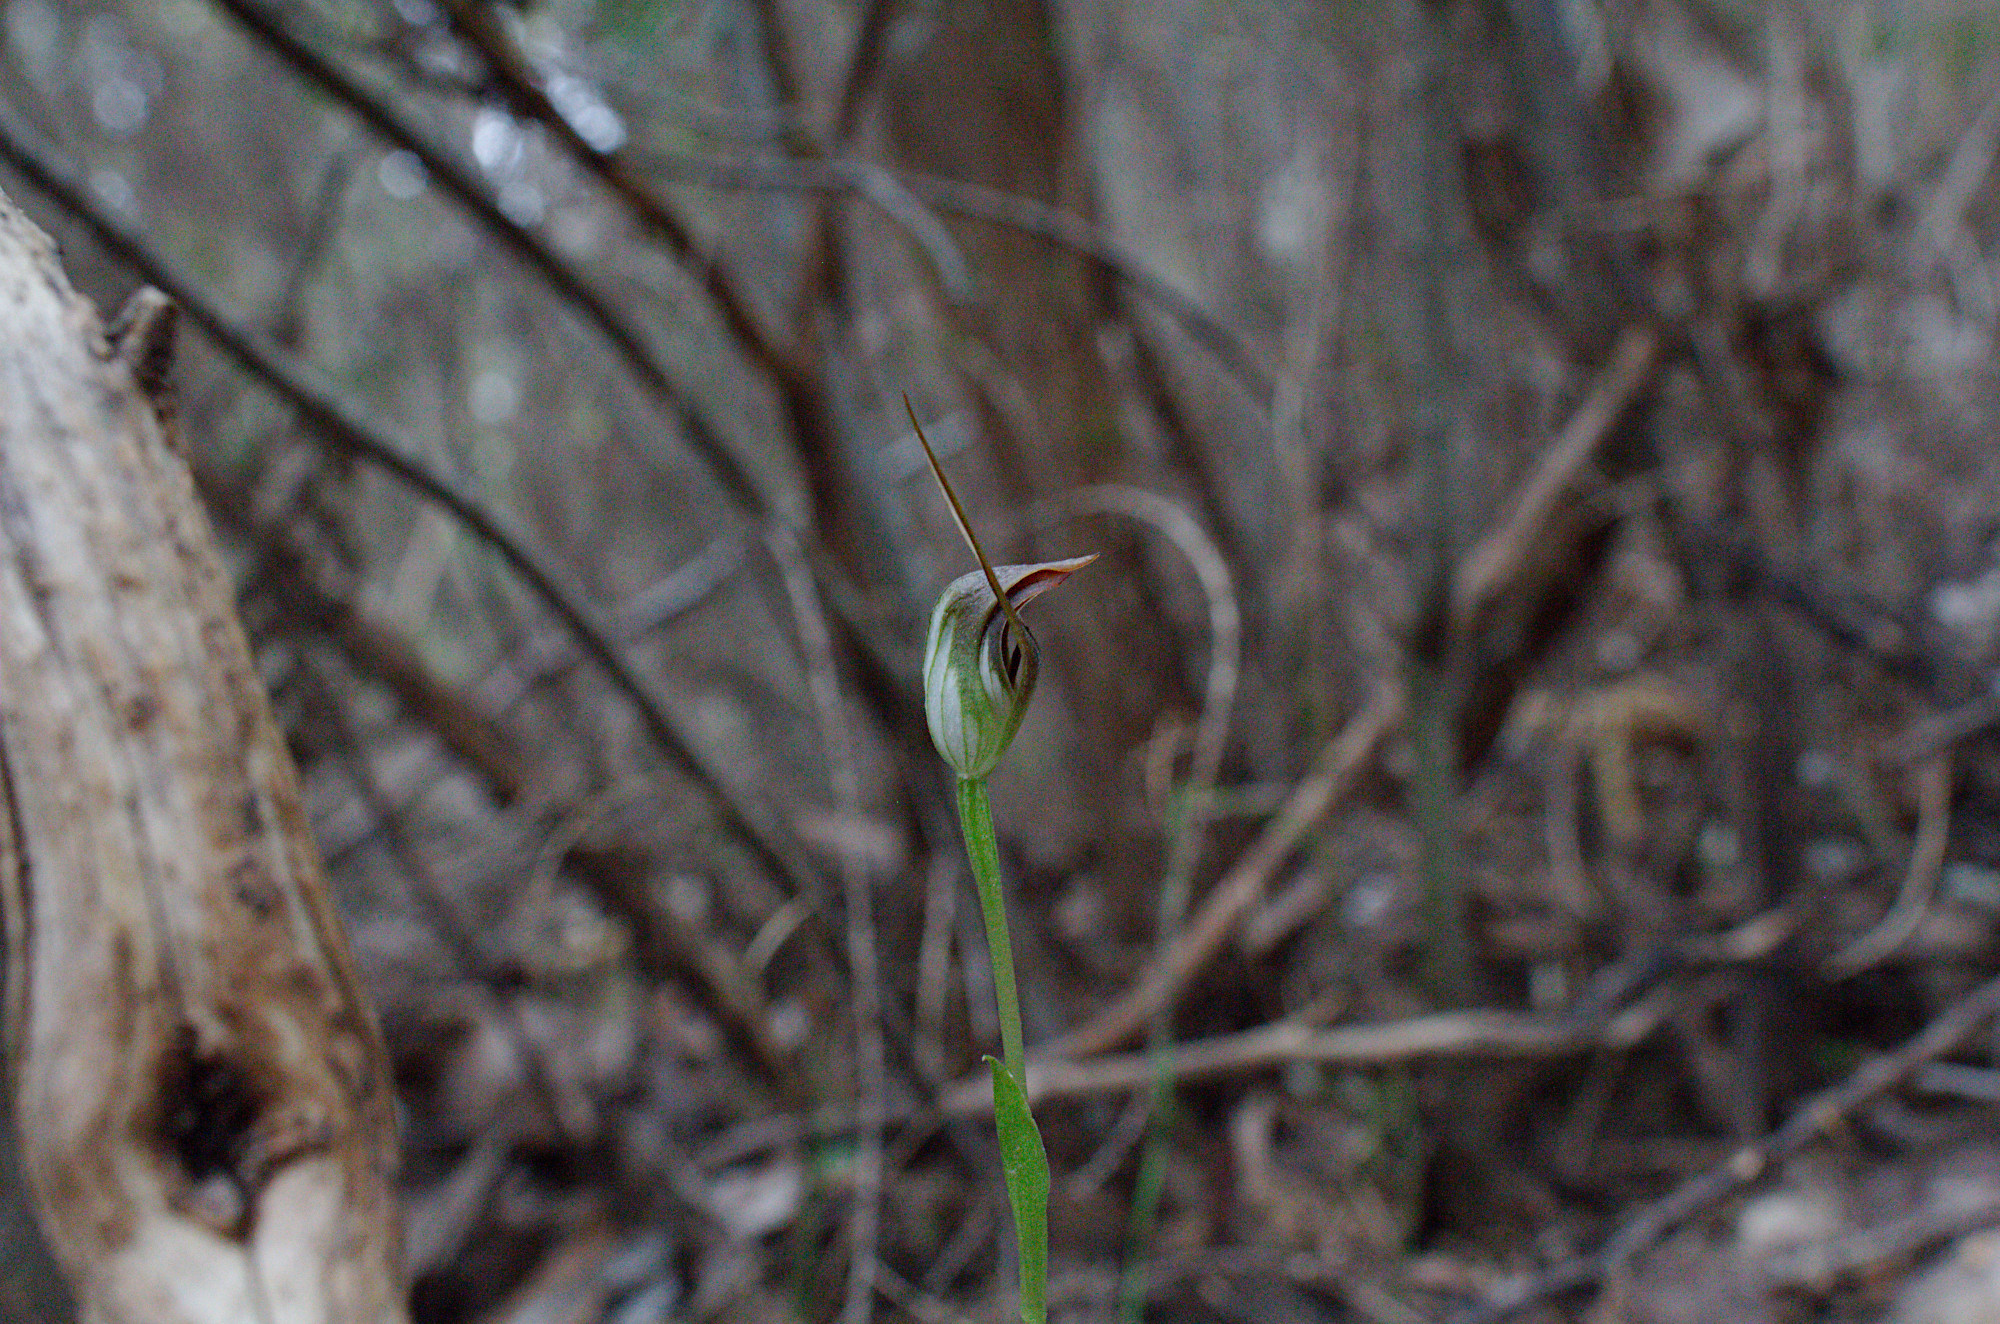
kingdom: Plantae
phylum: Tracheophyta
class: Liliopsida
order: Asparagales
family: Orchidaceae
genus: Pterostylis
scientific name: Pterostylis pedunculata
